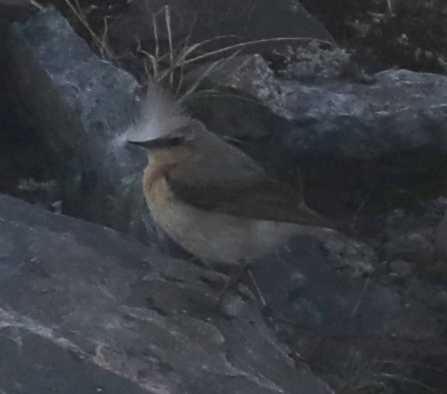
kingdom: Animalia
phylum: Chordata
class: Aves
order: Passeriformes
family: Muscicapidae
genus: Oenanthe
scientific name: Oenanthe oenanthe
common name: Northern wheatear
